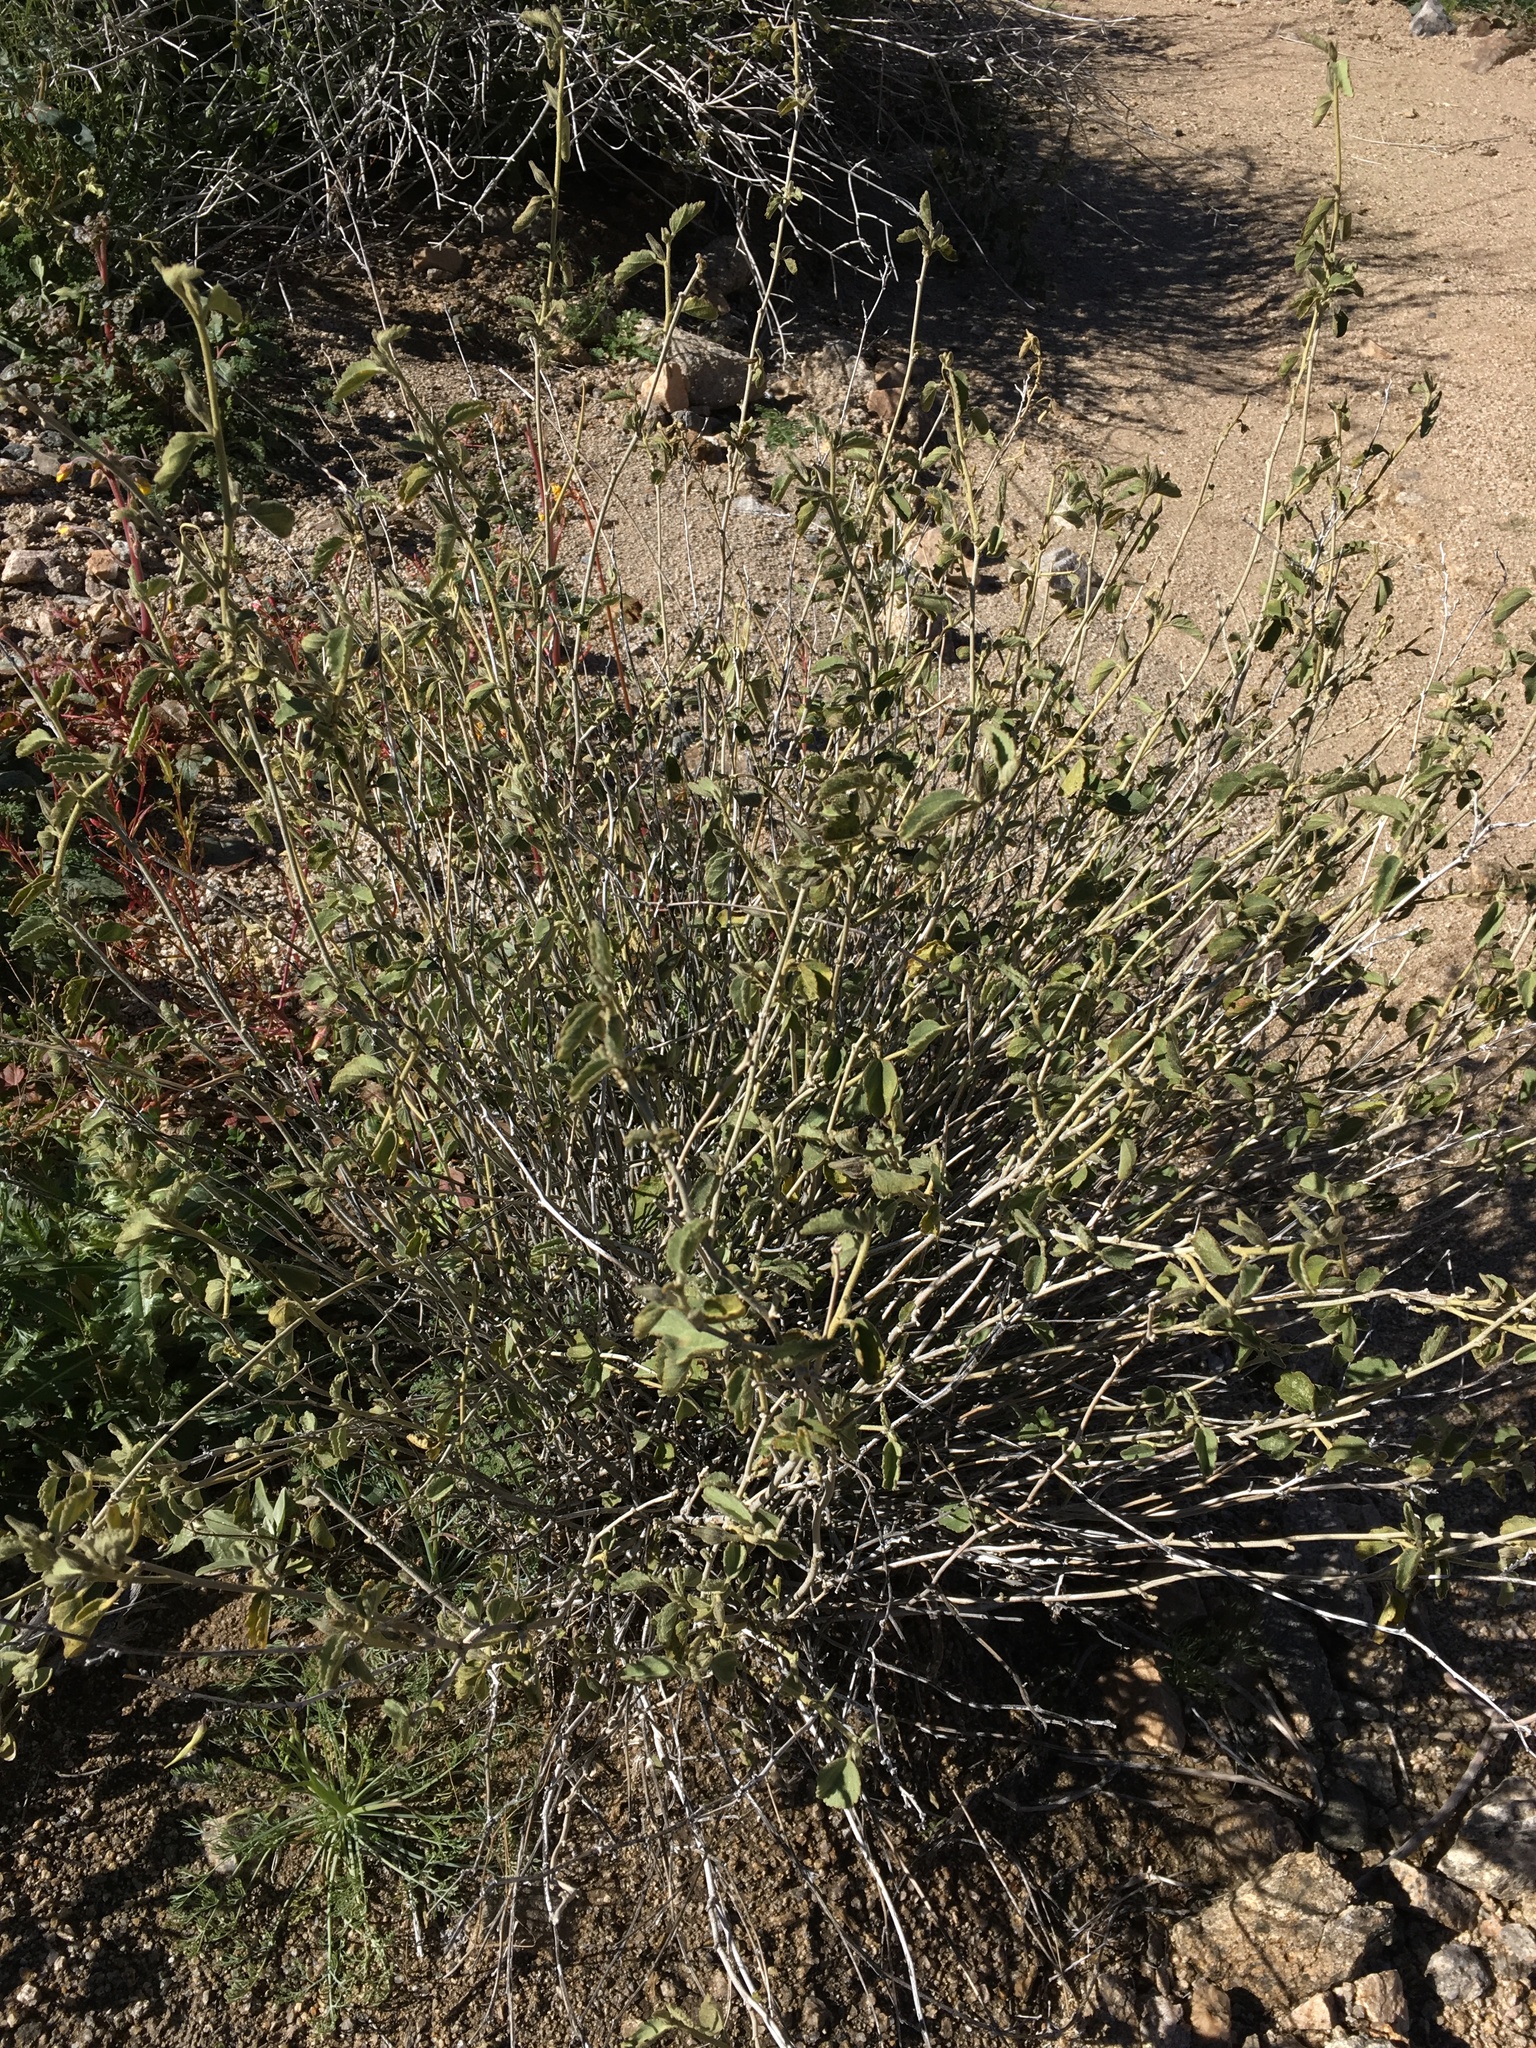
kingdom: Plantae
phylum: Tracheophyta
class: Magnoliopsida
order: Malvales
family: Malvaceae
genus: Hibiscus
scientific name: Hibiscus denudatus
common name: Paleface
